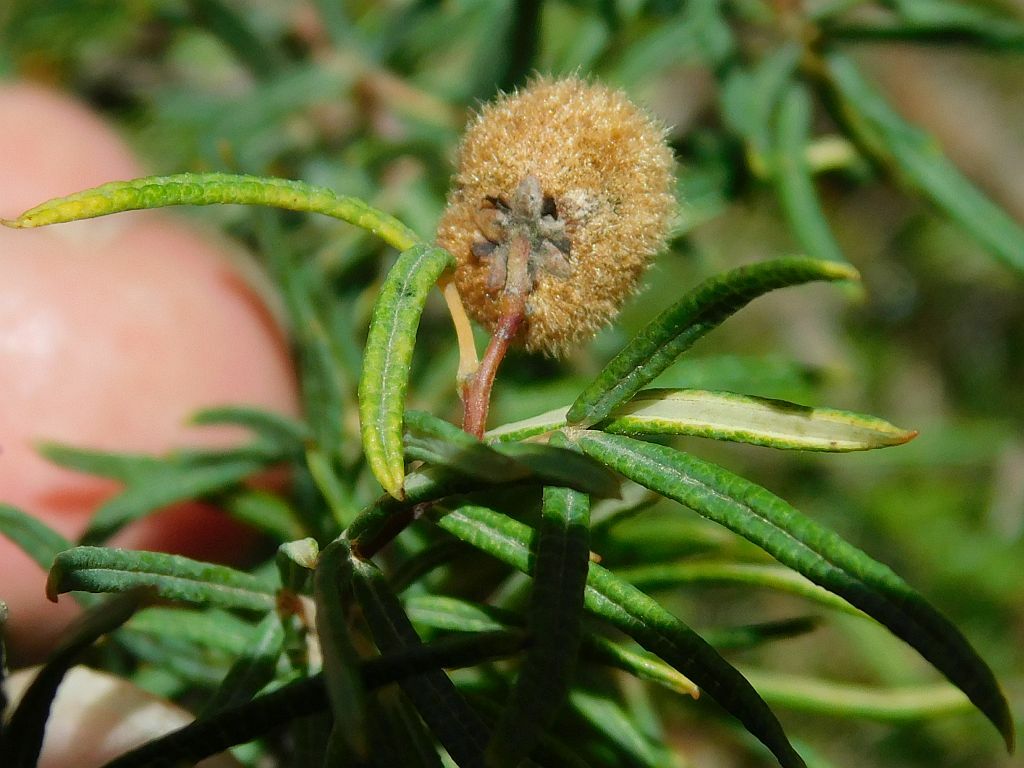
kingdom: Plantae
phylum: Tracheophyta
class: Magnoliopsida
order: Sapindales
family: Anacardiaceae
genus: Searsia
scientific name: Searsia rosmarinifolia
